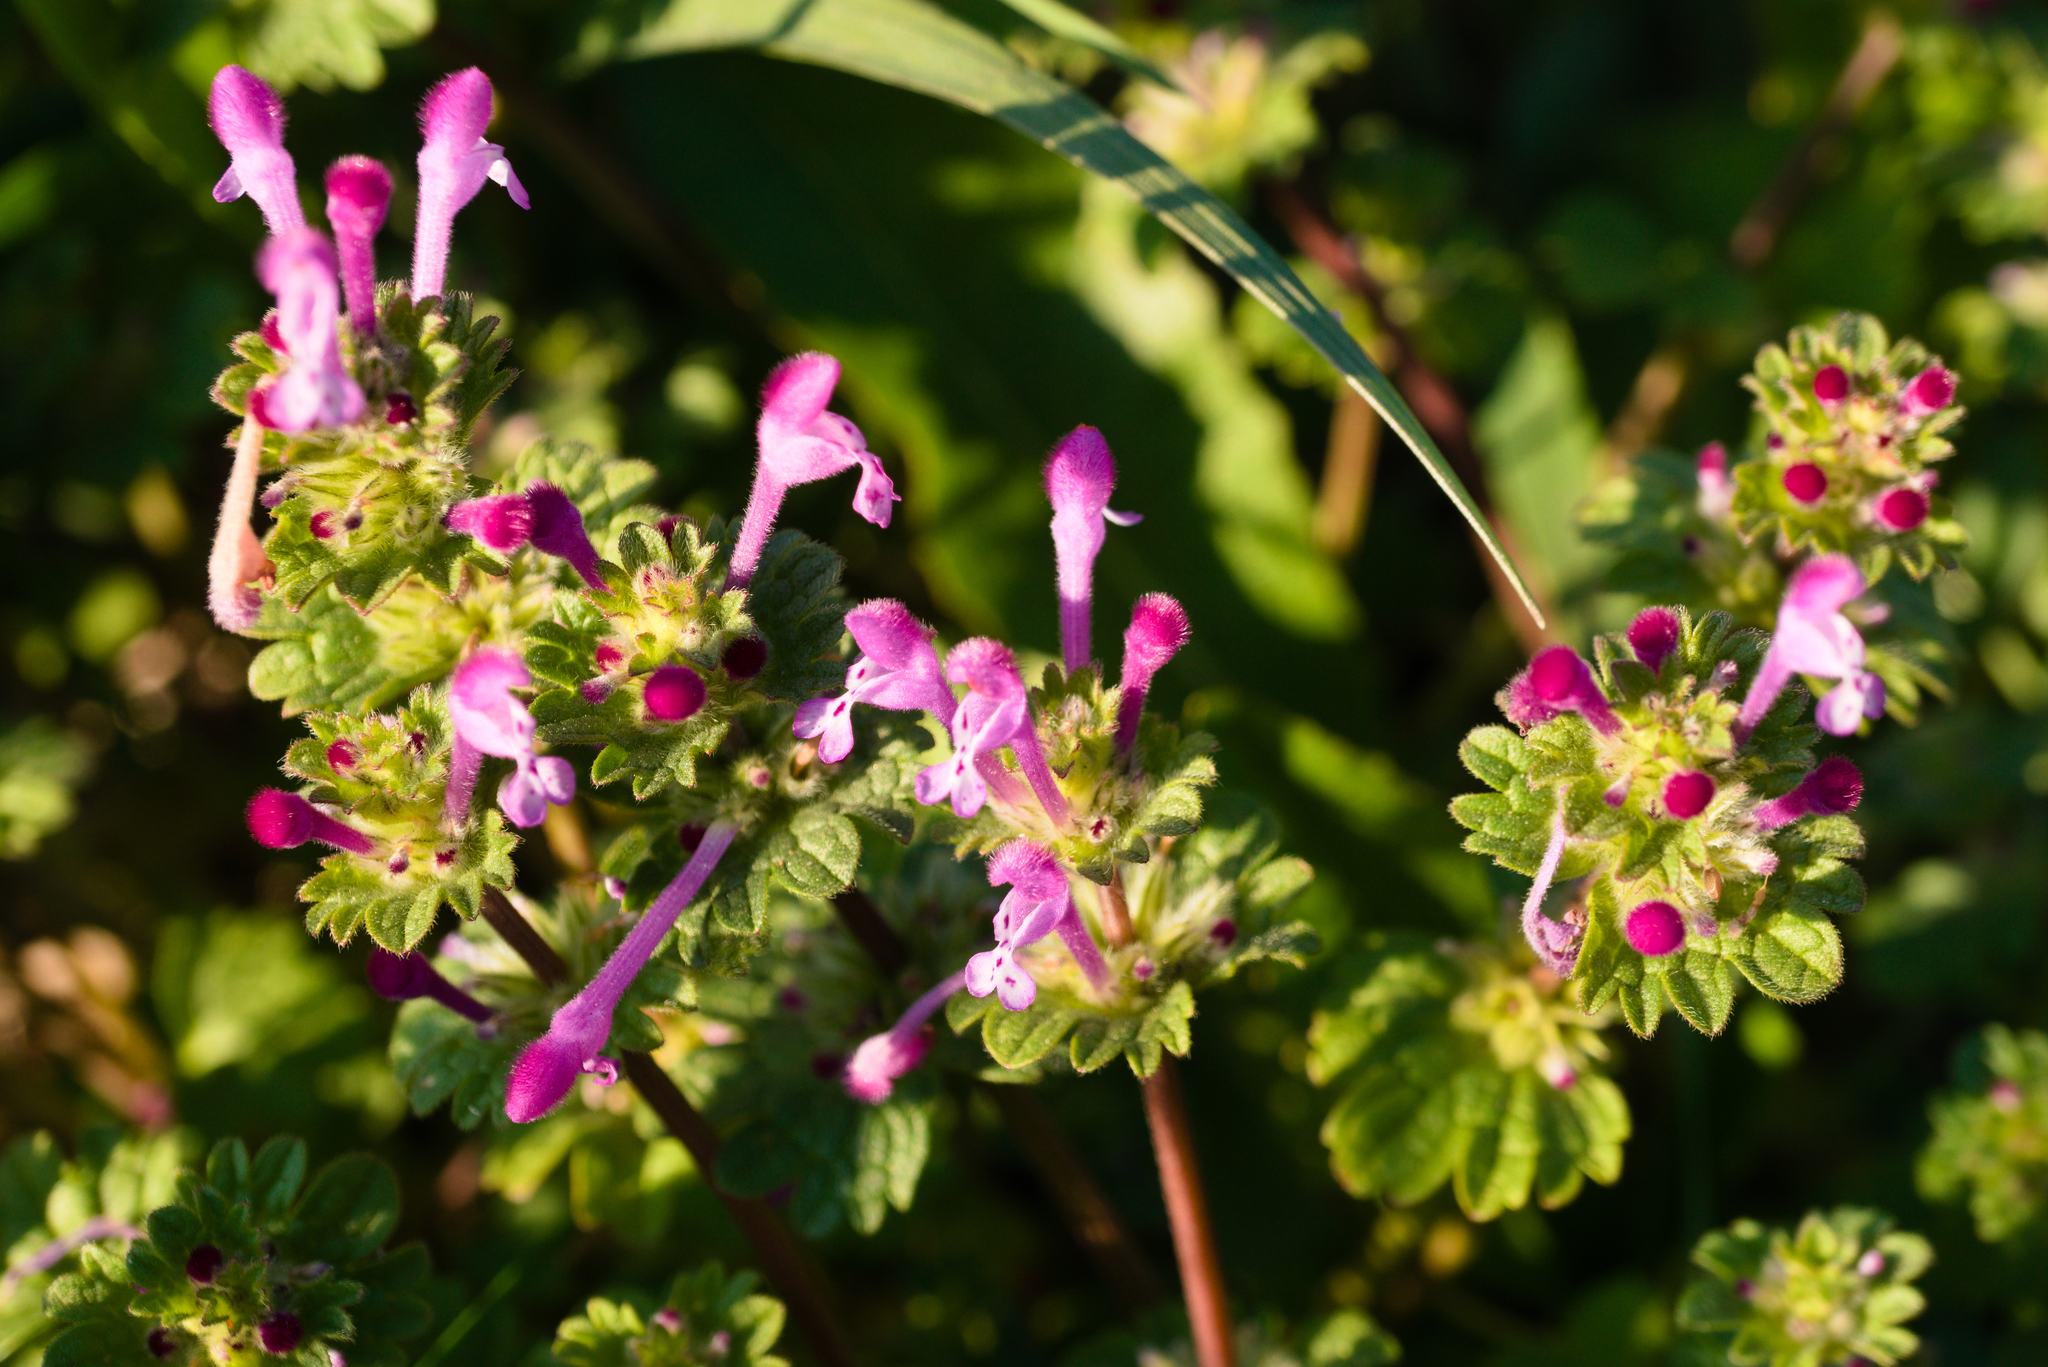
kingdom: Plantae
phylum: Tracheophyta
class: Magnoliopsida
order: Lamiales
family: Lamiaceae
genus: Lamium
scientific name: Lamium amplexicaule
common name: Henbit dead-nettle
